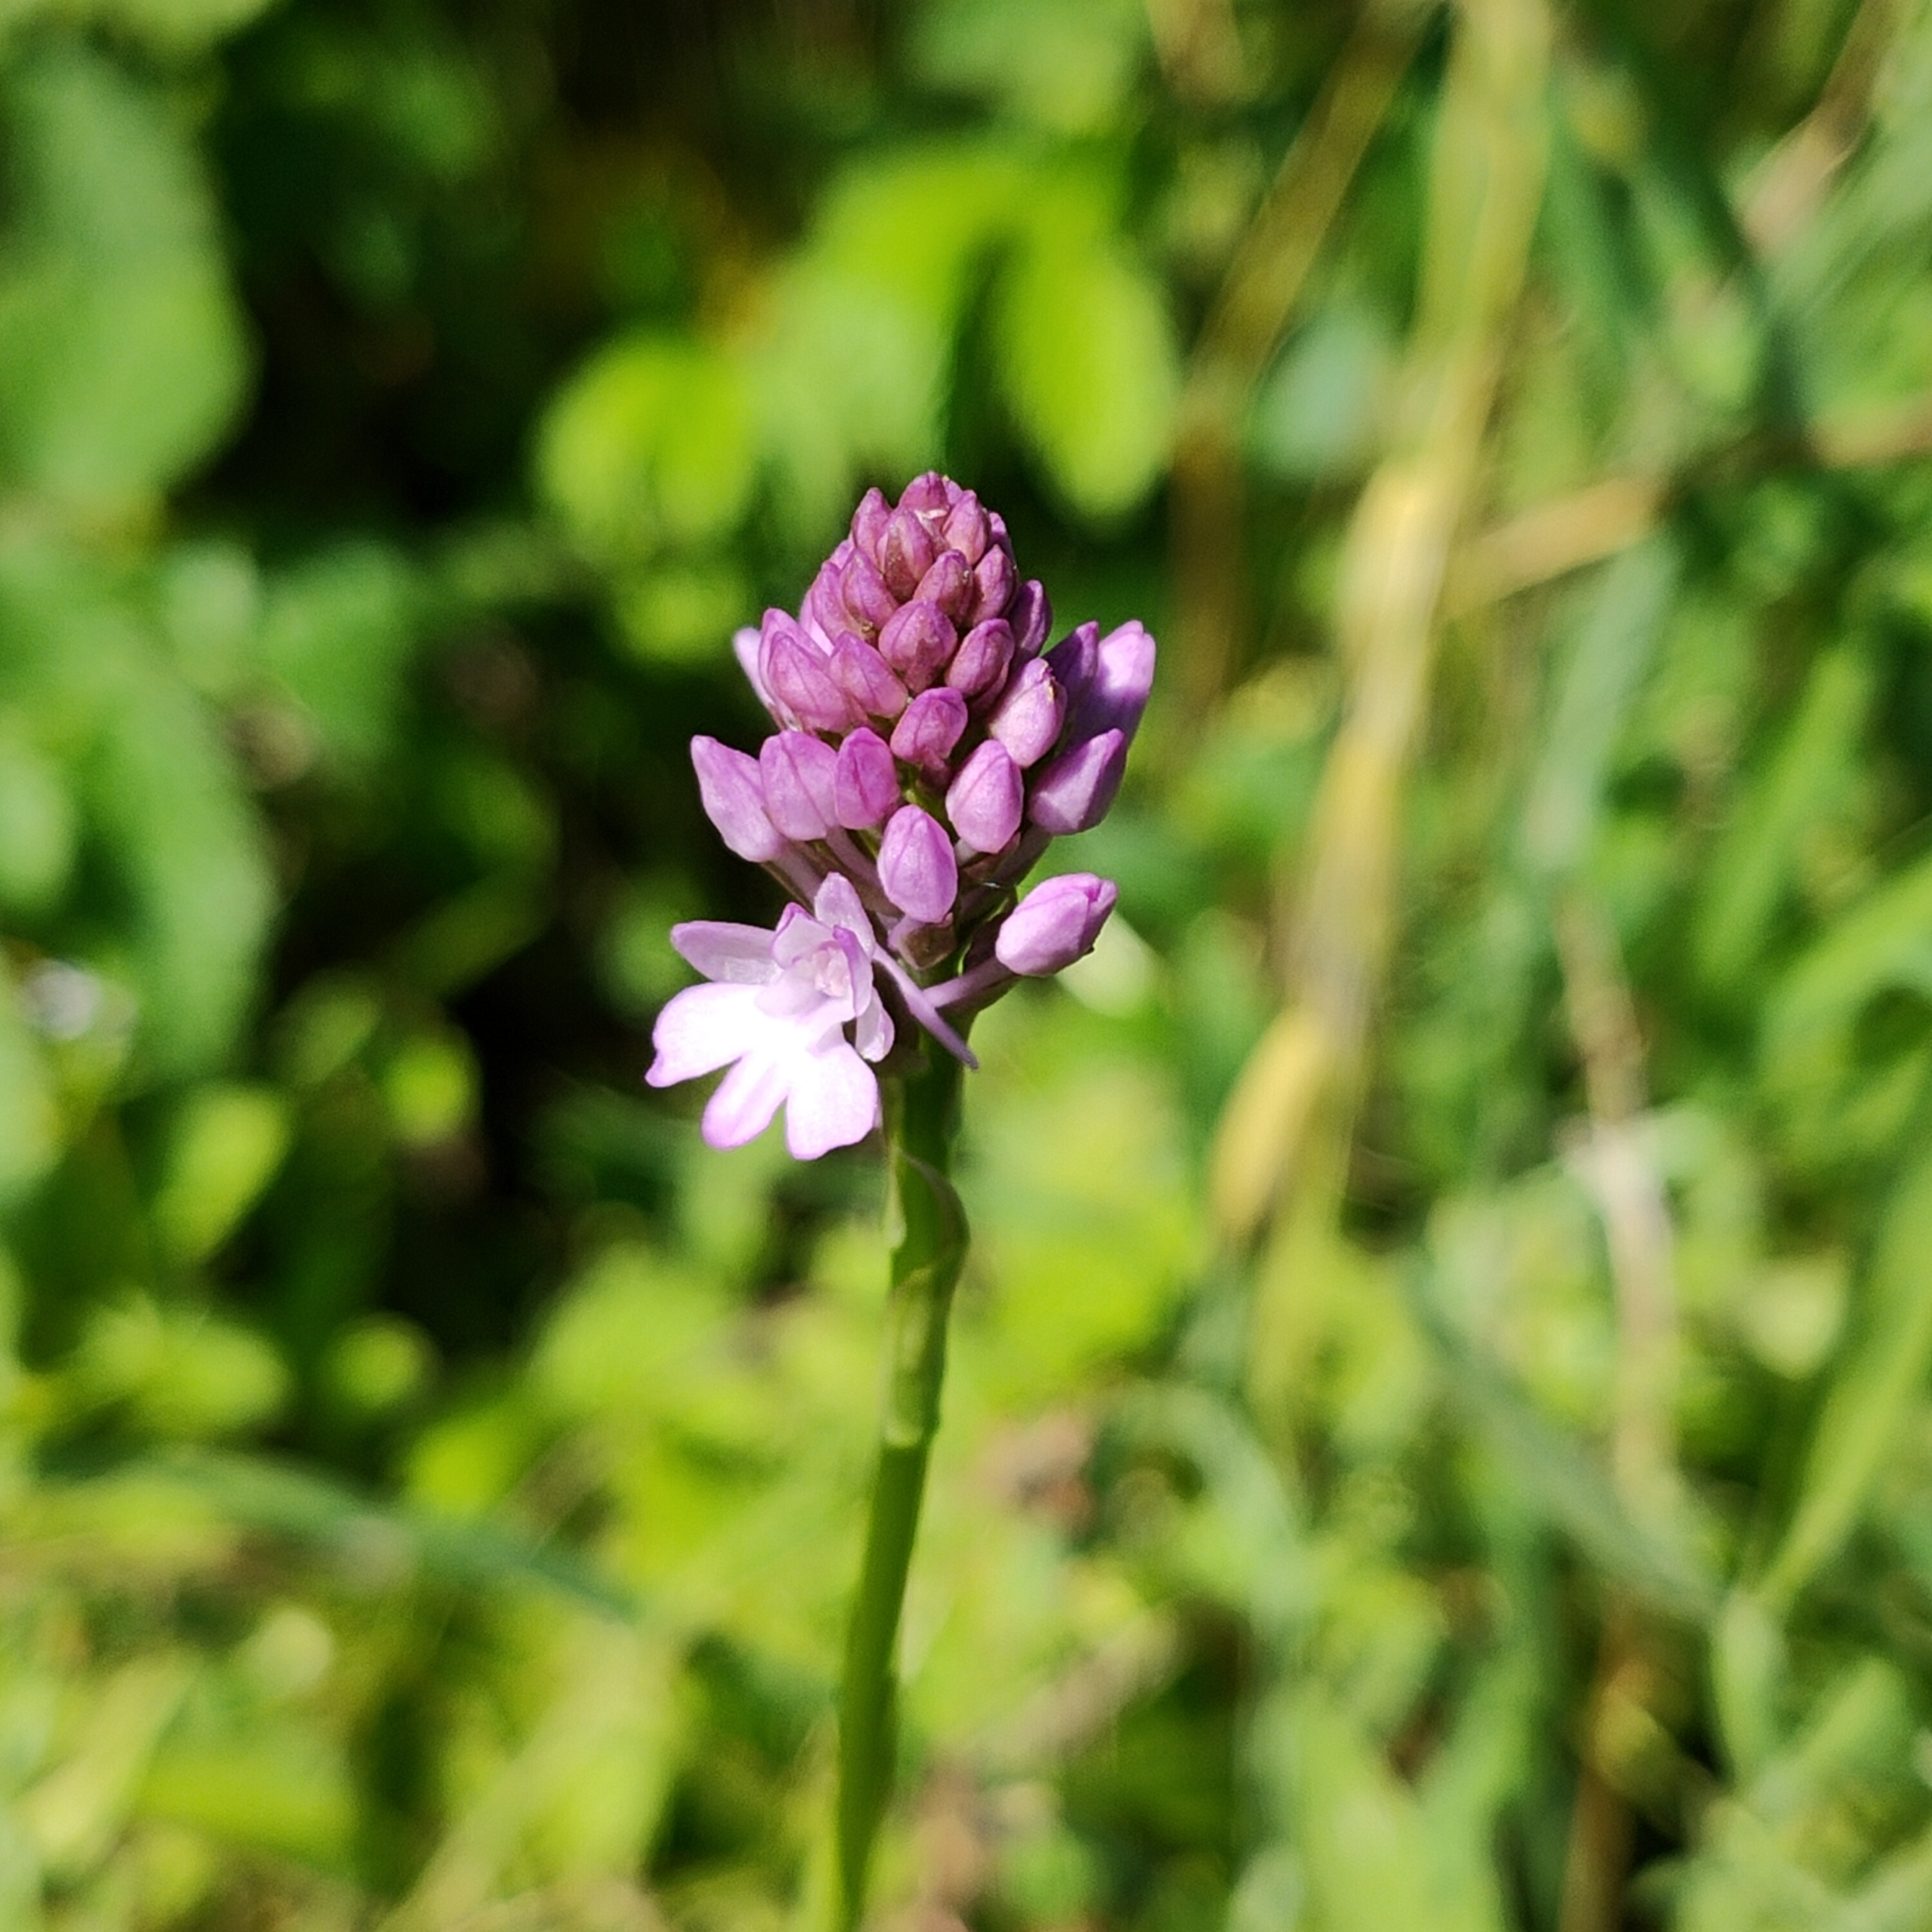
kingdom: Plantae
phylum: Tracheophyta
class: Liliopsida
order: Asparagales
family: Orchidaceae
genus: Anacamptis
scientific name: Anacamptis pyramidalis
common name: Pyramidal orchid
